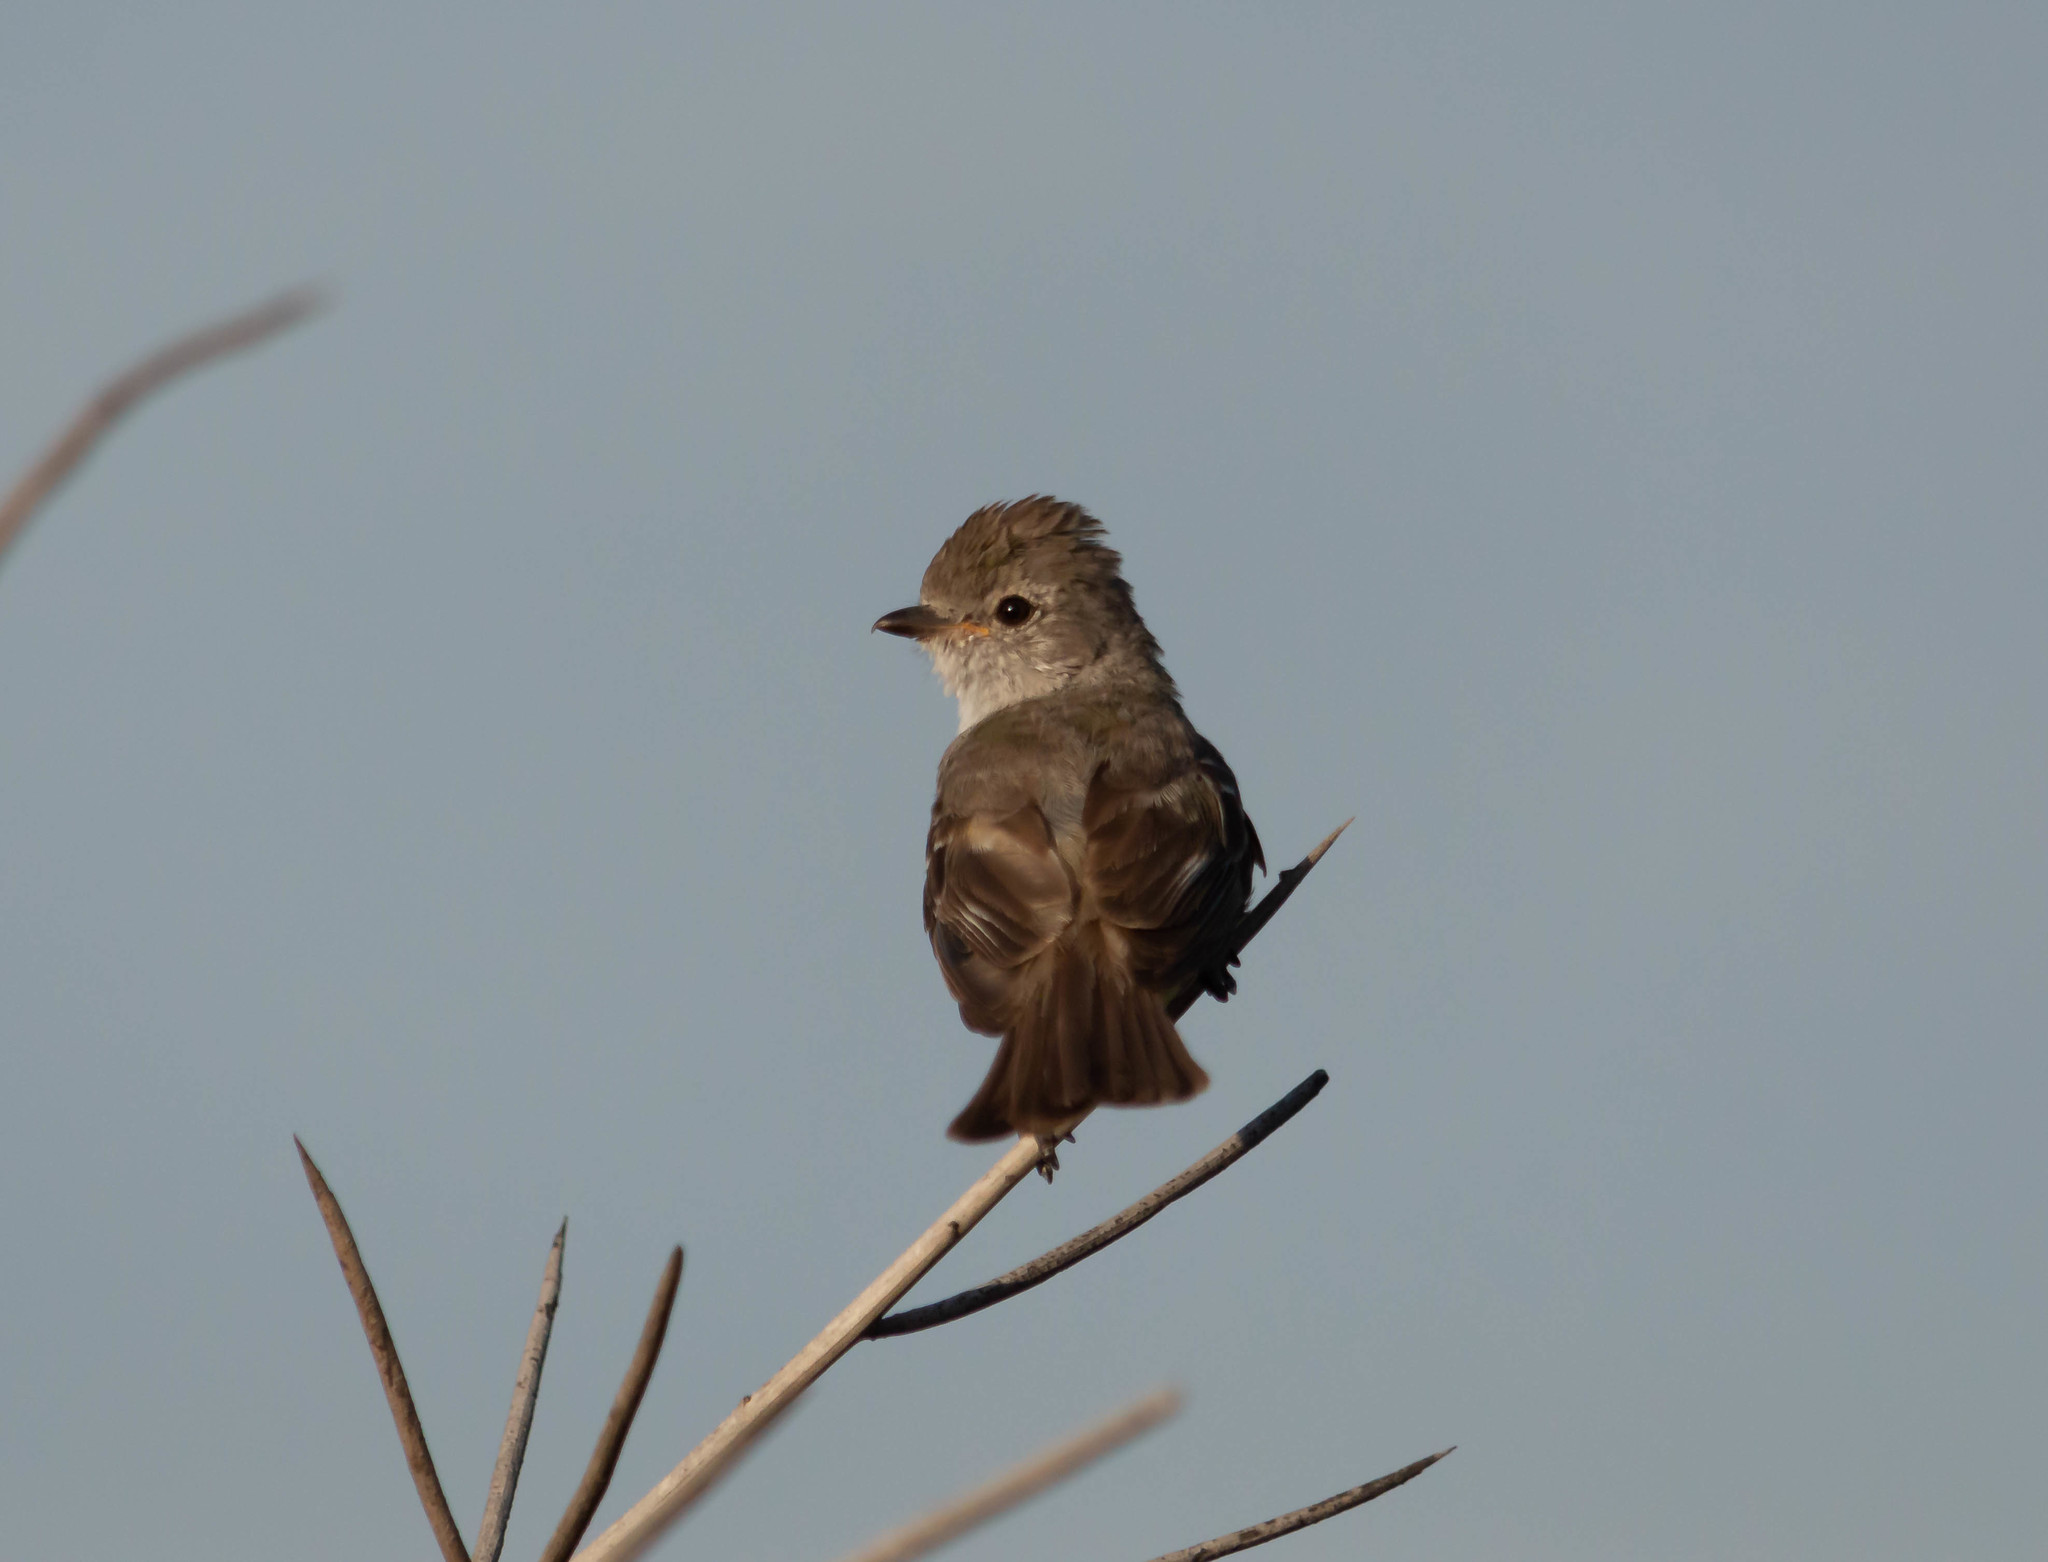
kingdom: Animalia
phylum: Chordata
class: Aves
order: Passeriformes
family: Tyrannidae
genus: Sublegatus
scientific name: Sublegatus modestus
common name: Southern scrub flycatcher
